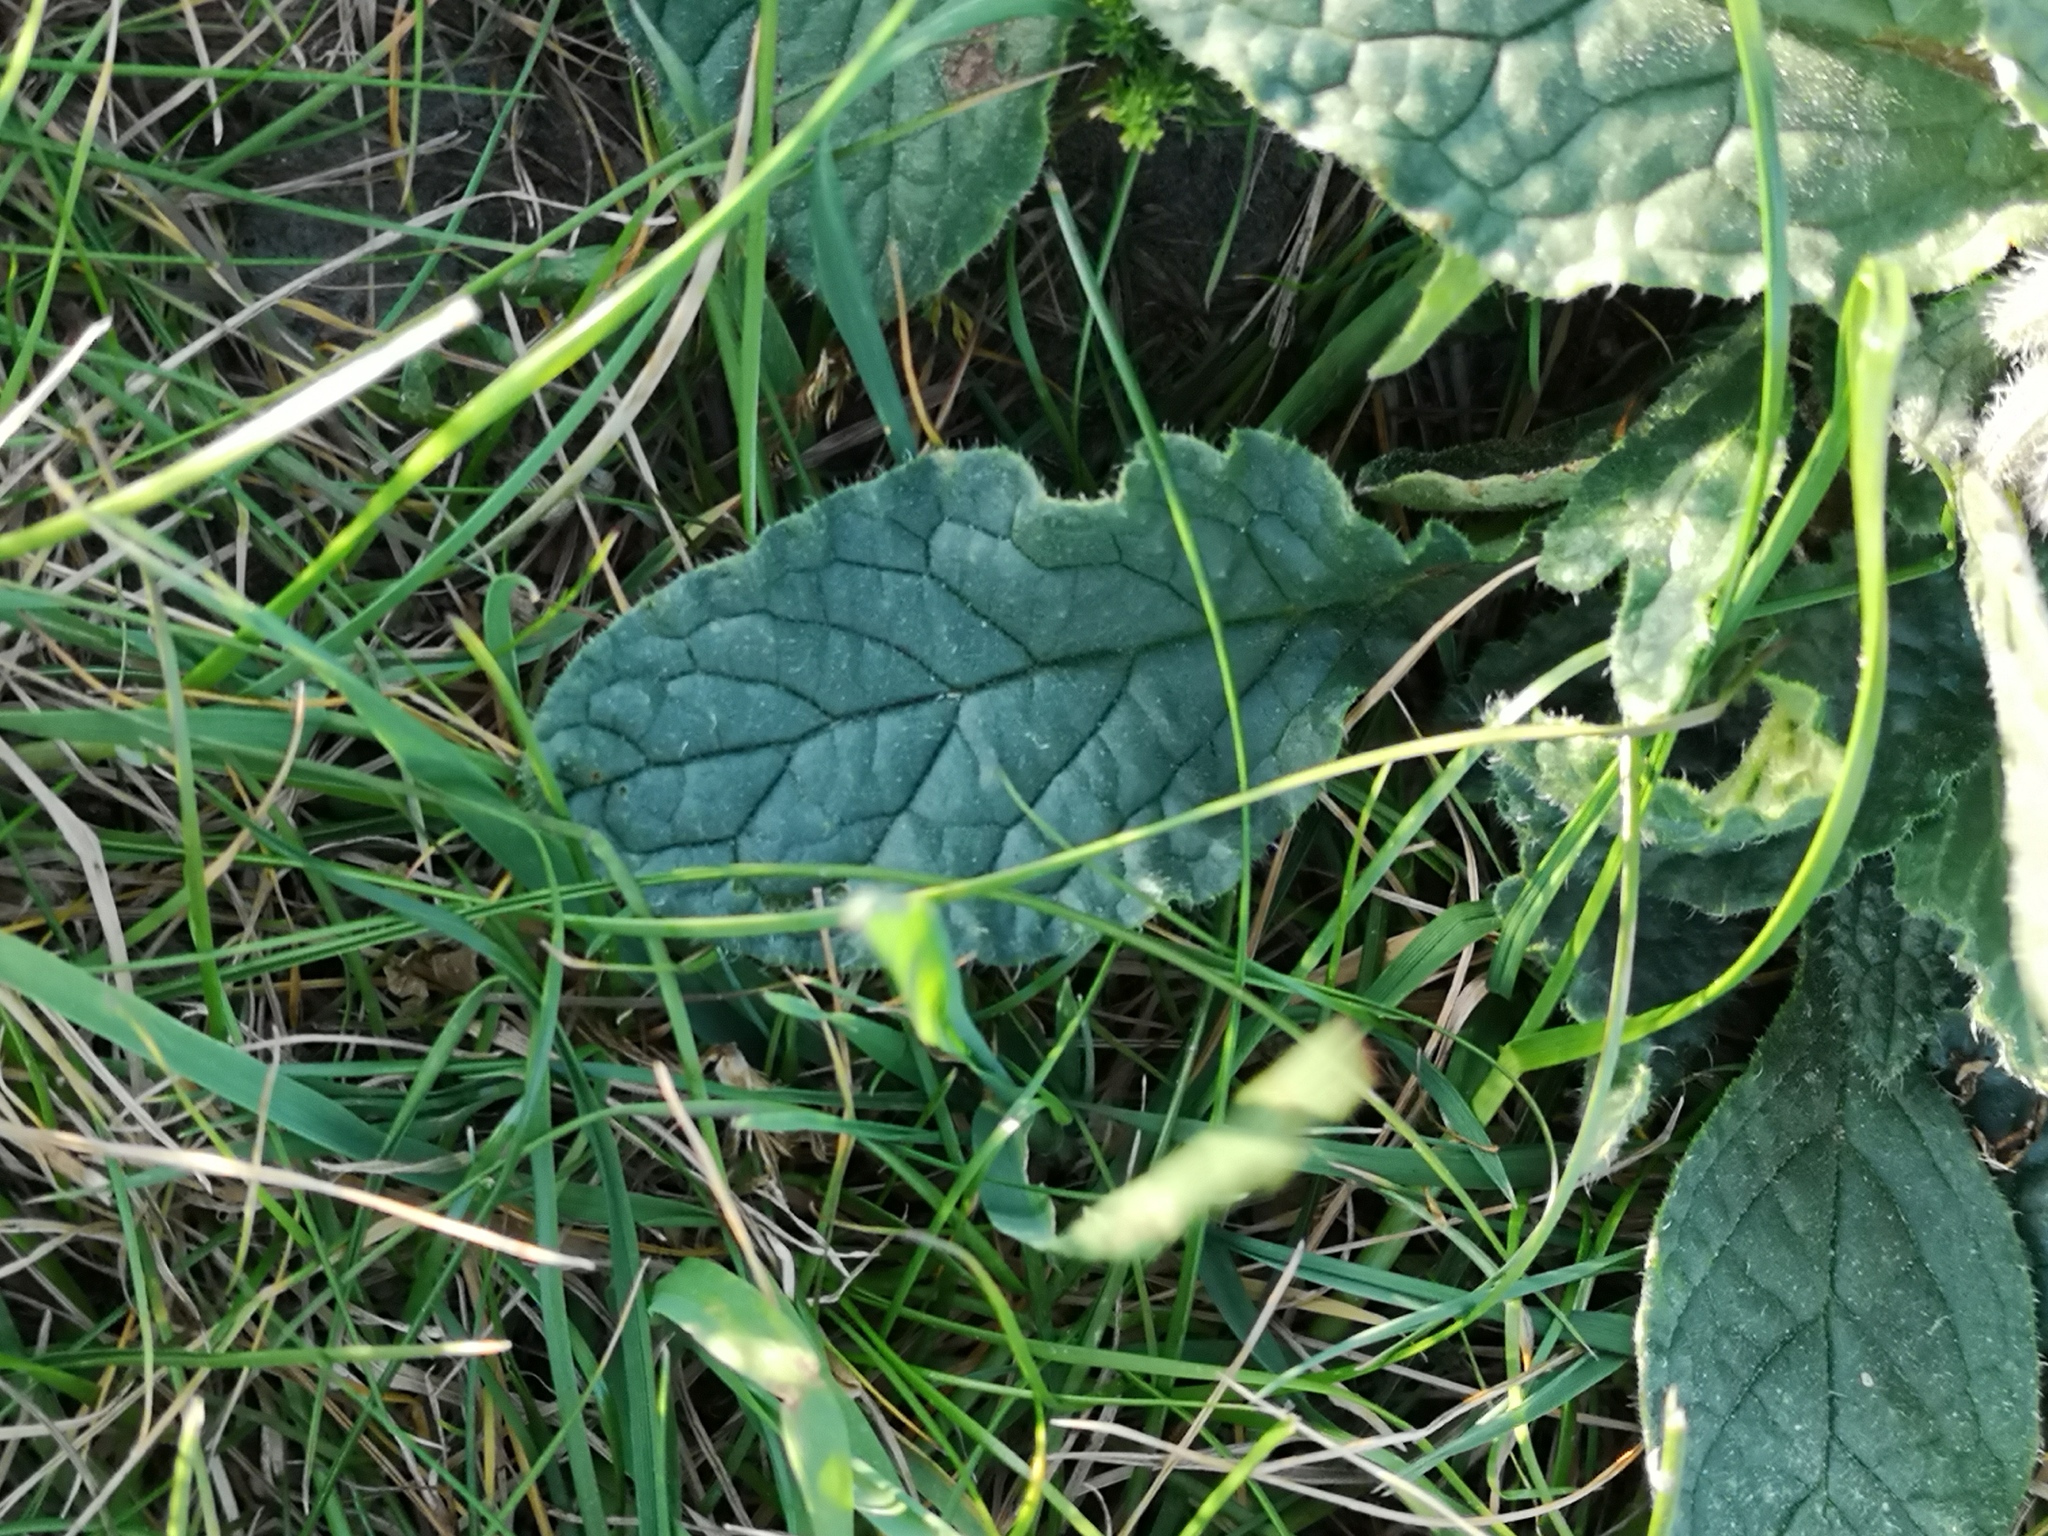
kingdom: Plantae
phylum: Tracheophyta
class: Magnoliopsida
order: Boraginales
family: Boraginaceae
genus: Borago
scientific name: Borago officinalis
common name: Borage
